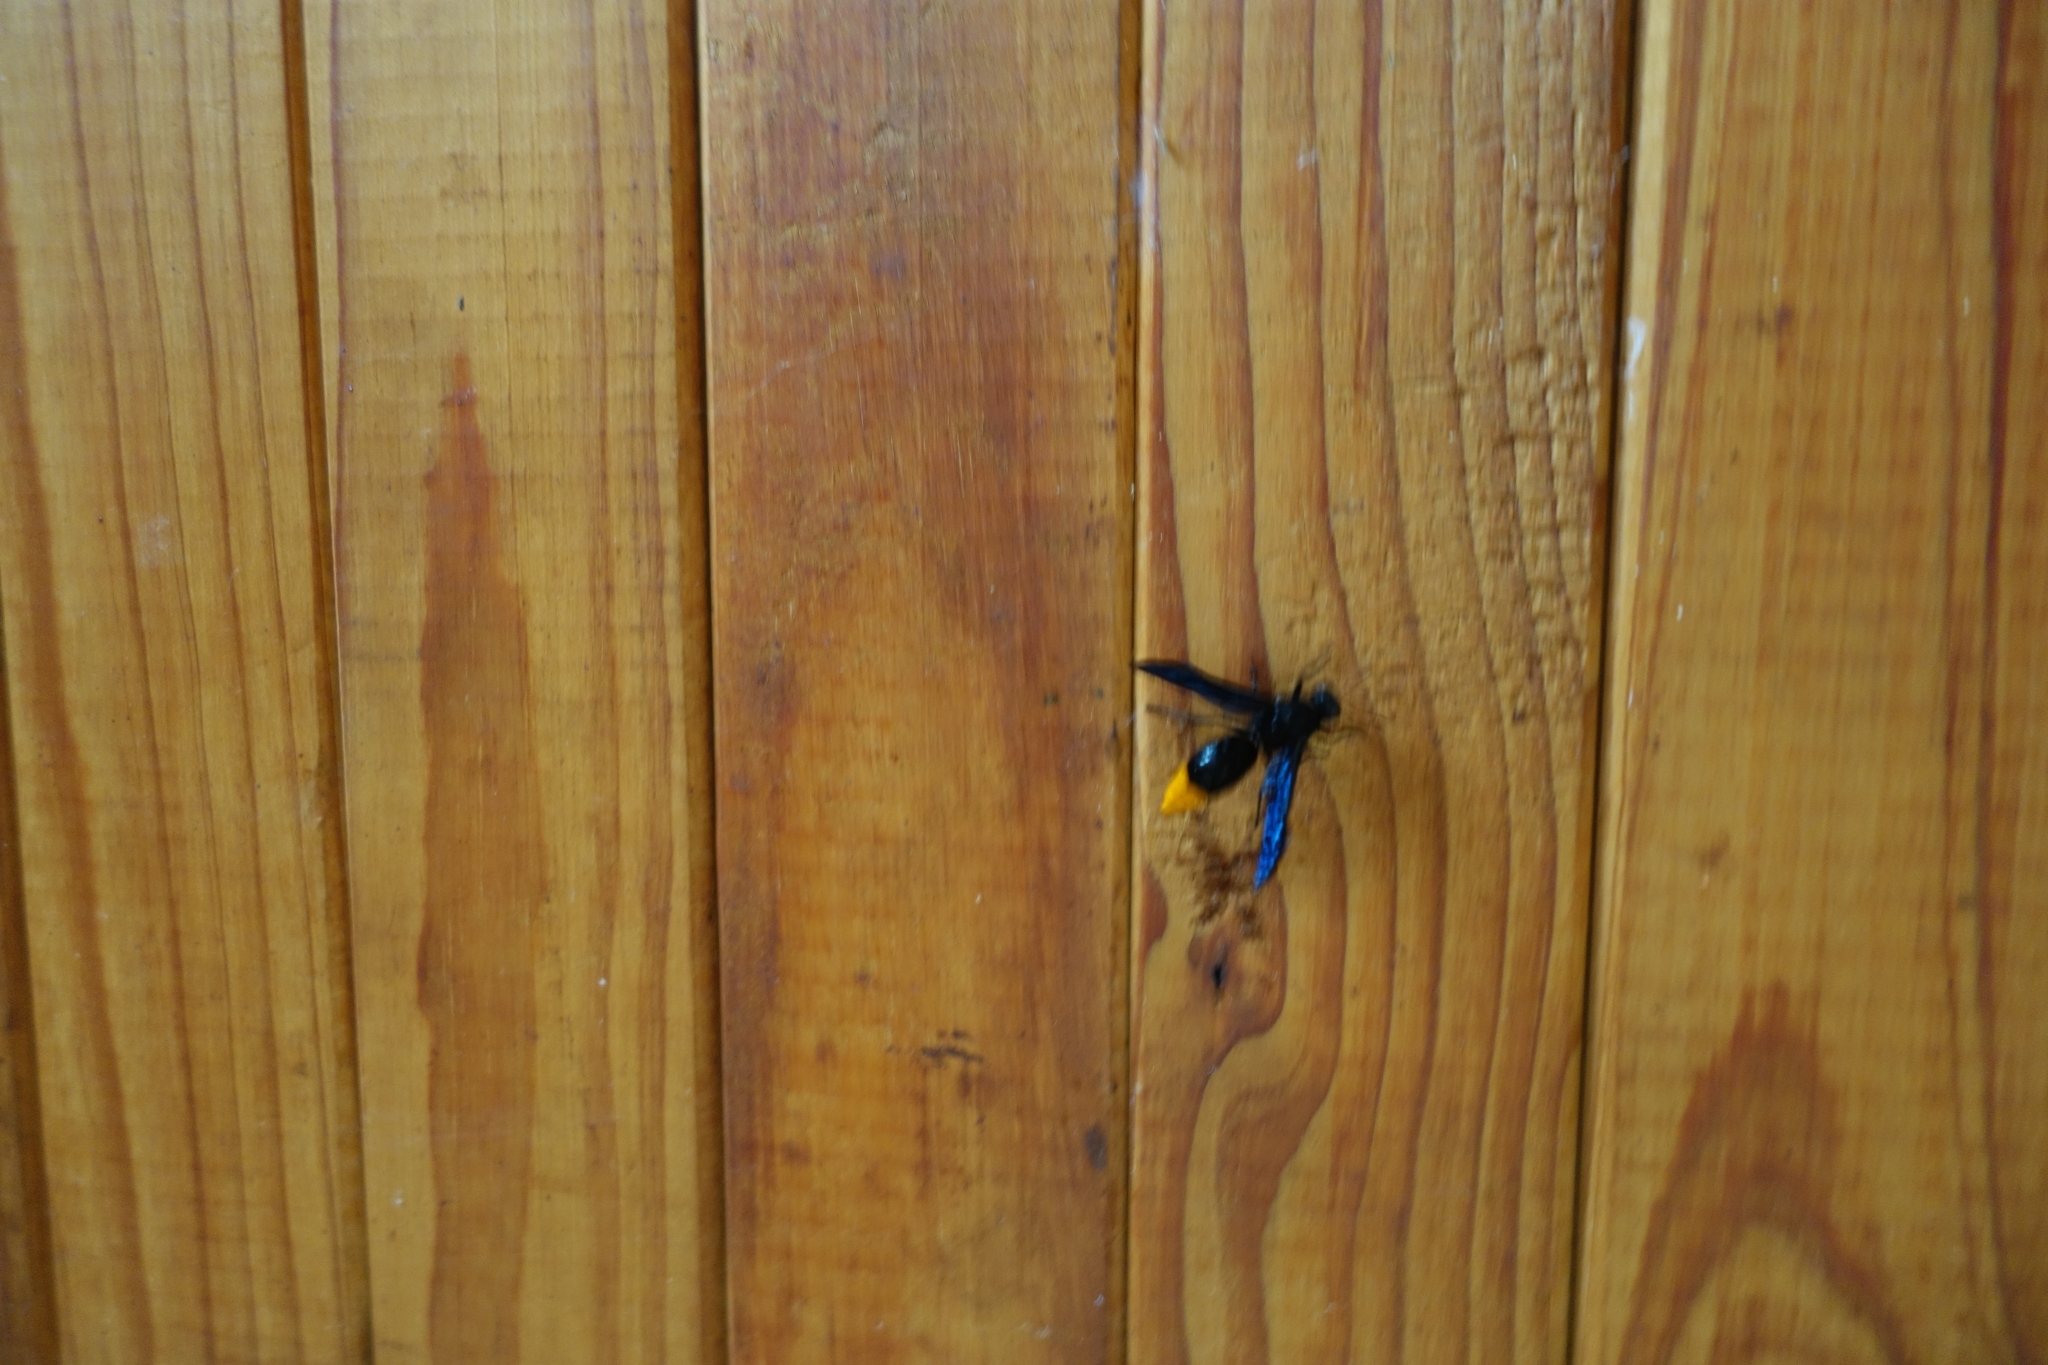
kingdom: Animalia
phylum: Arthropoda
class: Insecta
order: Hymenoptera
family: Vespidae
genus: Synagris
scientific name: Synagris
